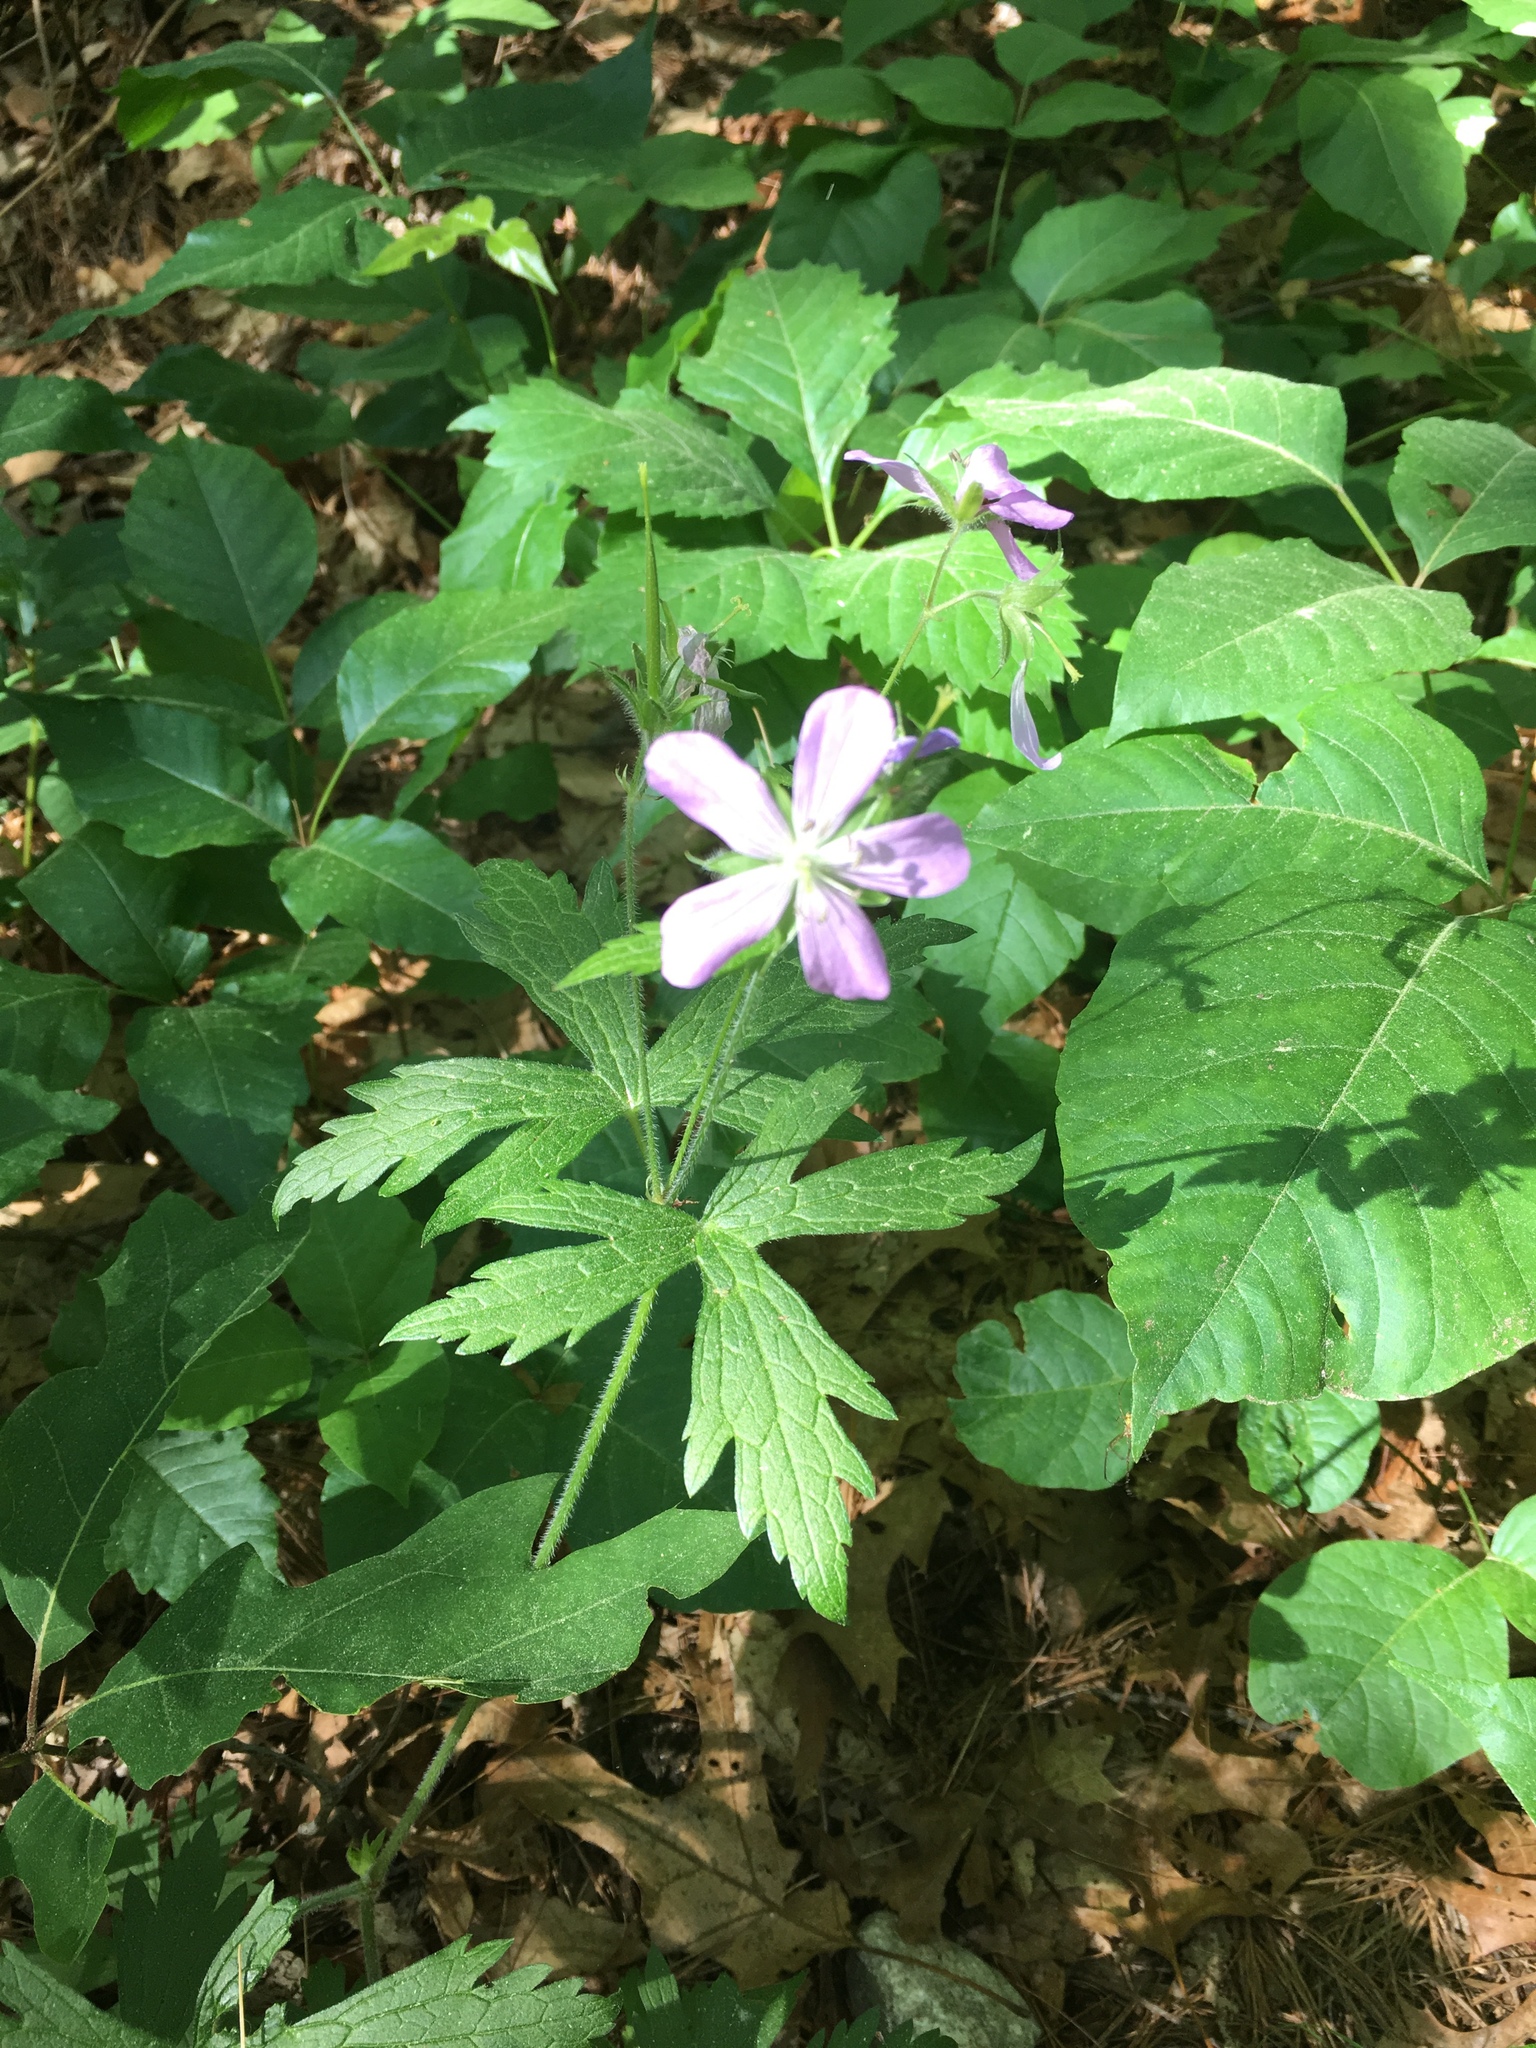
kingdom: Plantae
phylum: Tracheophyta
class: Magnoliopsida
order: Geraniales
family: Geraniaceae
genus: Geranium
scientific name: Geranium maculatum
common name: Spotted geranium
